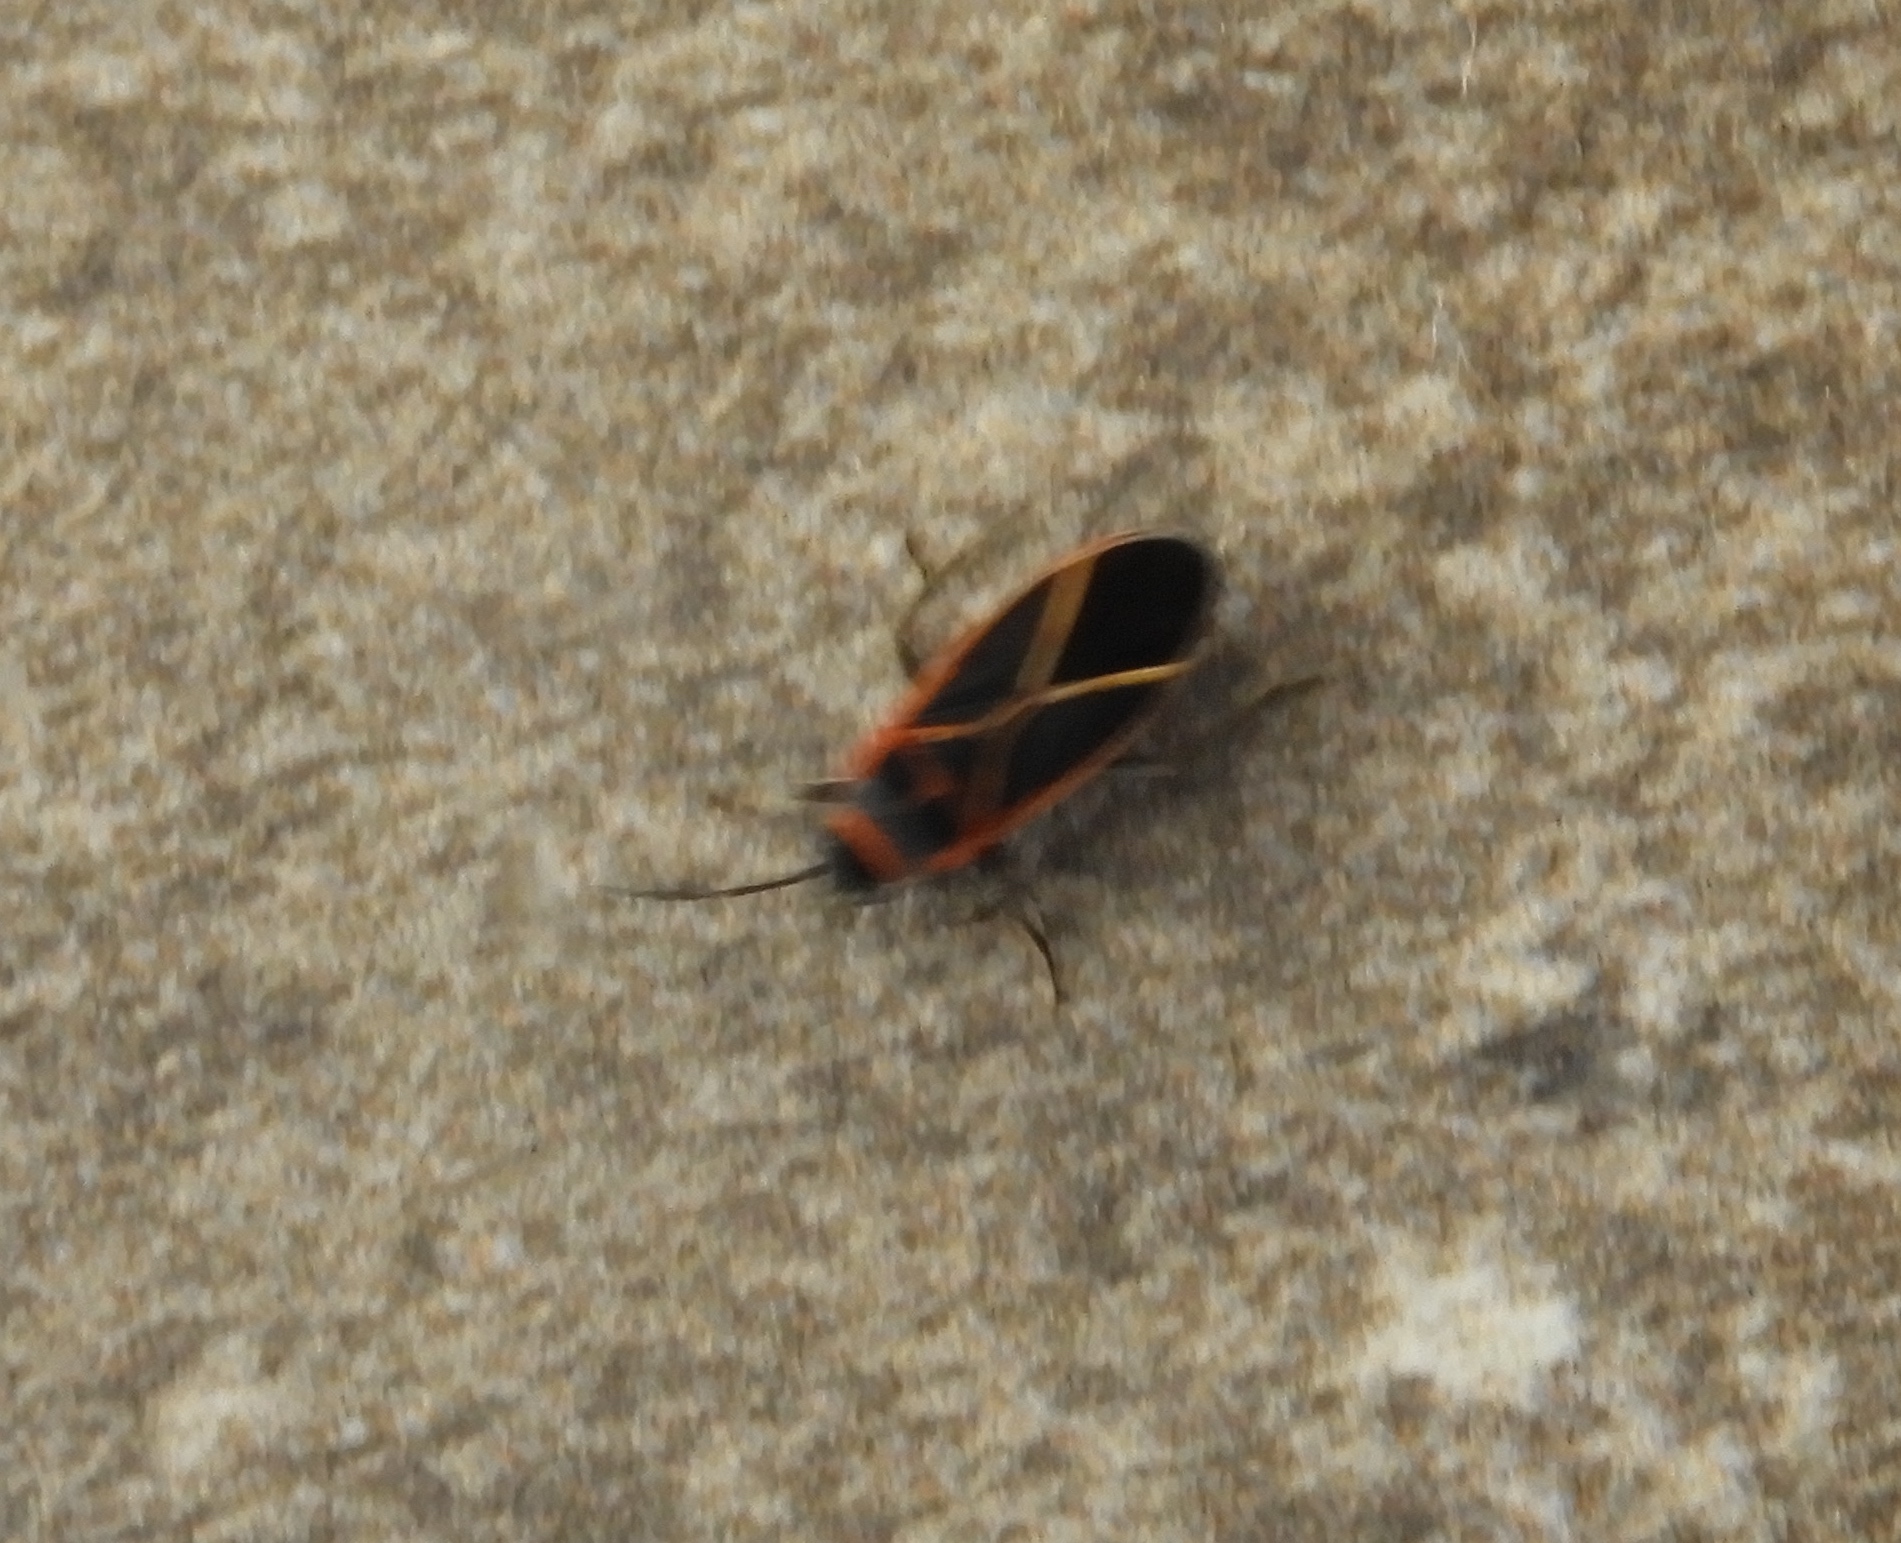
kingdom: Animalia
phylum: Arthropoda
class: Insecta
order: Hemiptera
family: Lygaeidae
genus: Ochrostomus
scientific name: Ochrostomus uhleri
